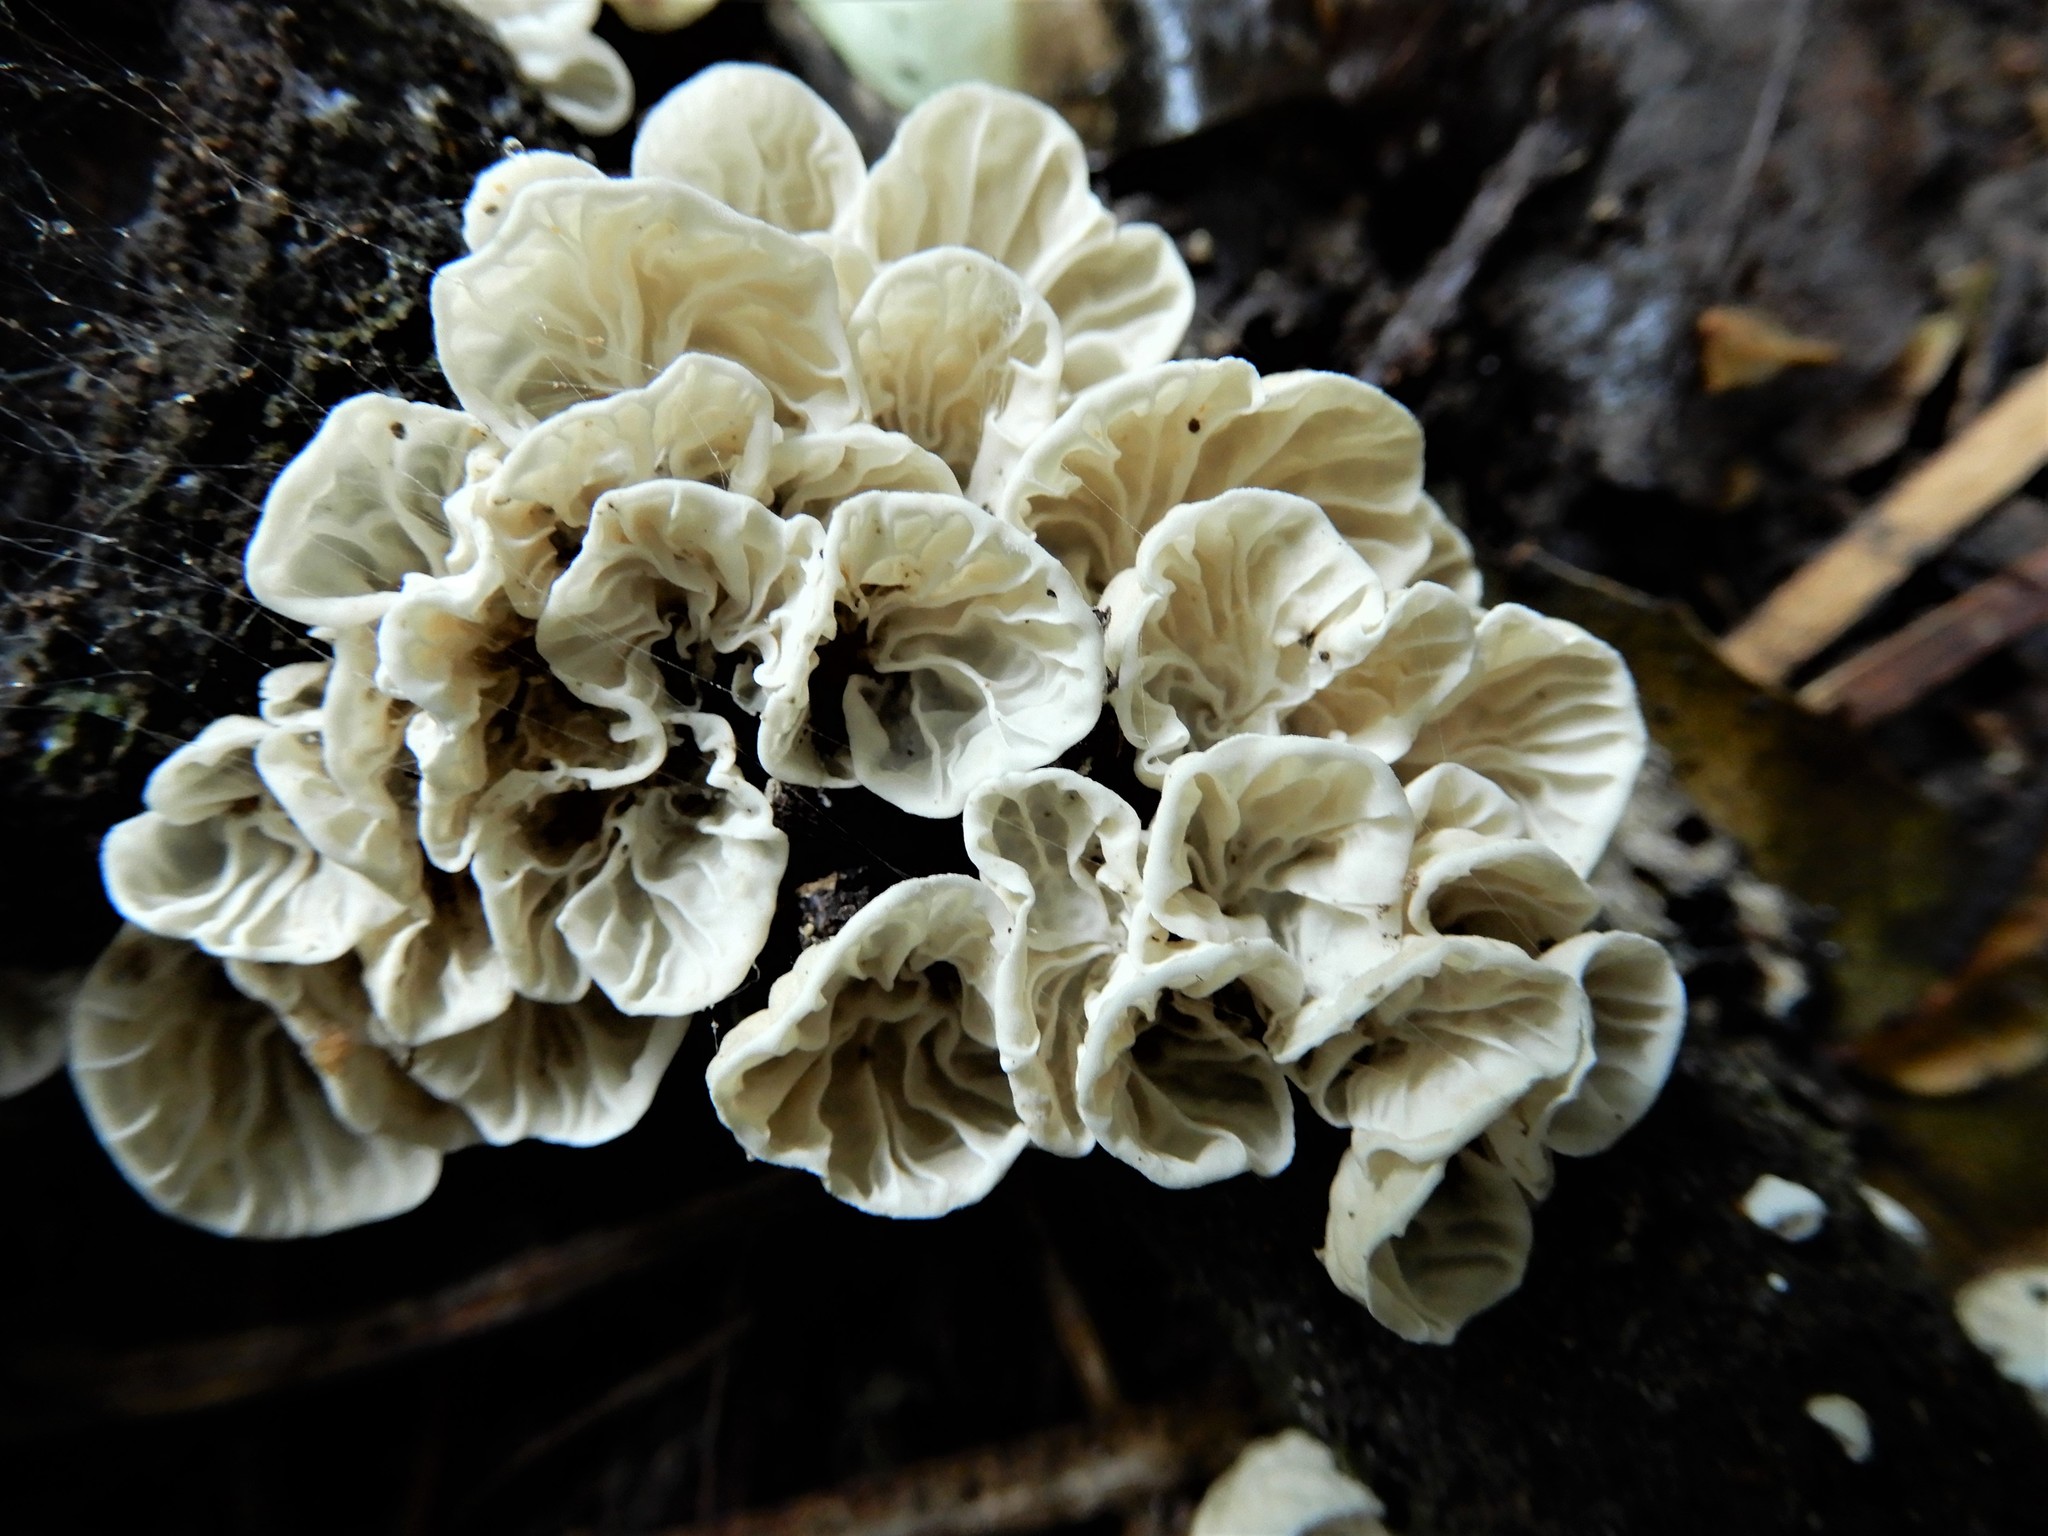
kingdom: Fungi
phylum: Basidiomycota
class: Agaricomycetes
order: Agaricales
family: Marasmiaceae
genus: Campanella
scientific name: Campanella tristis
